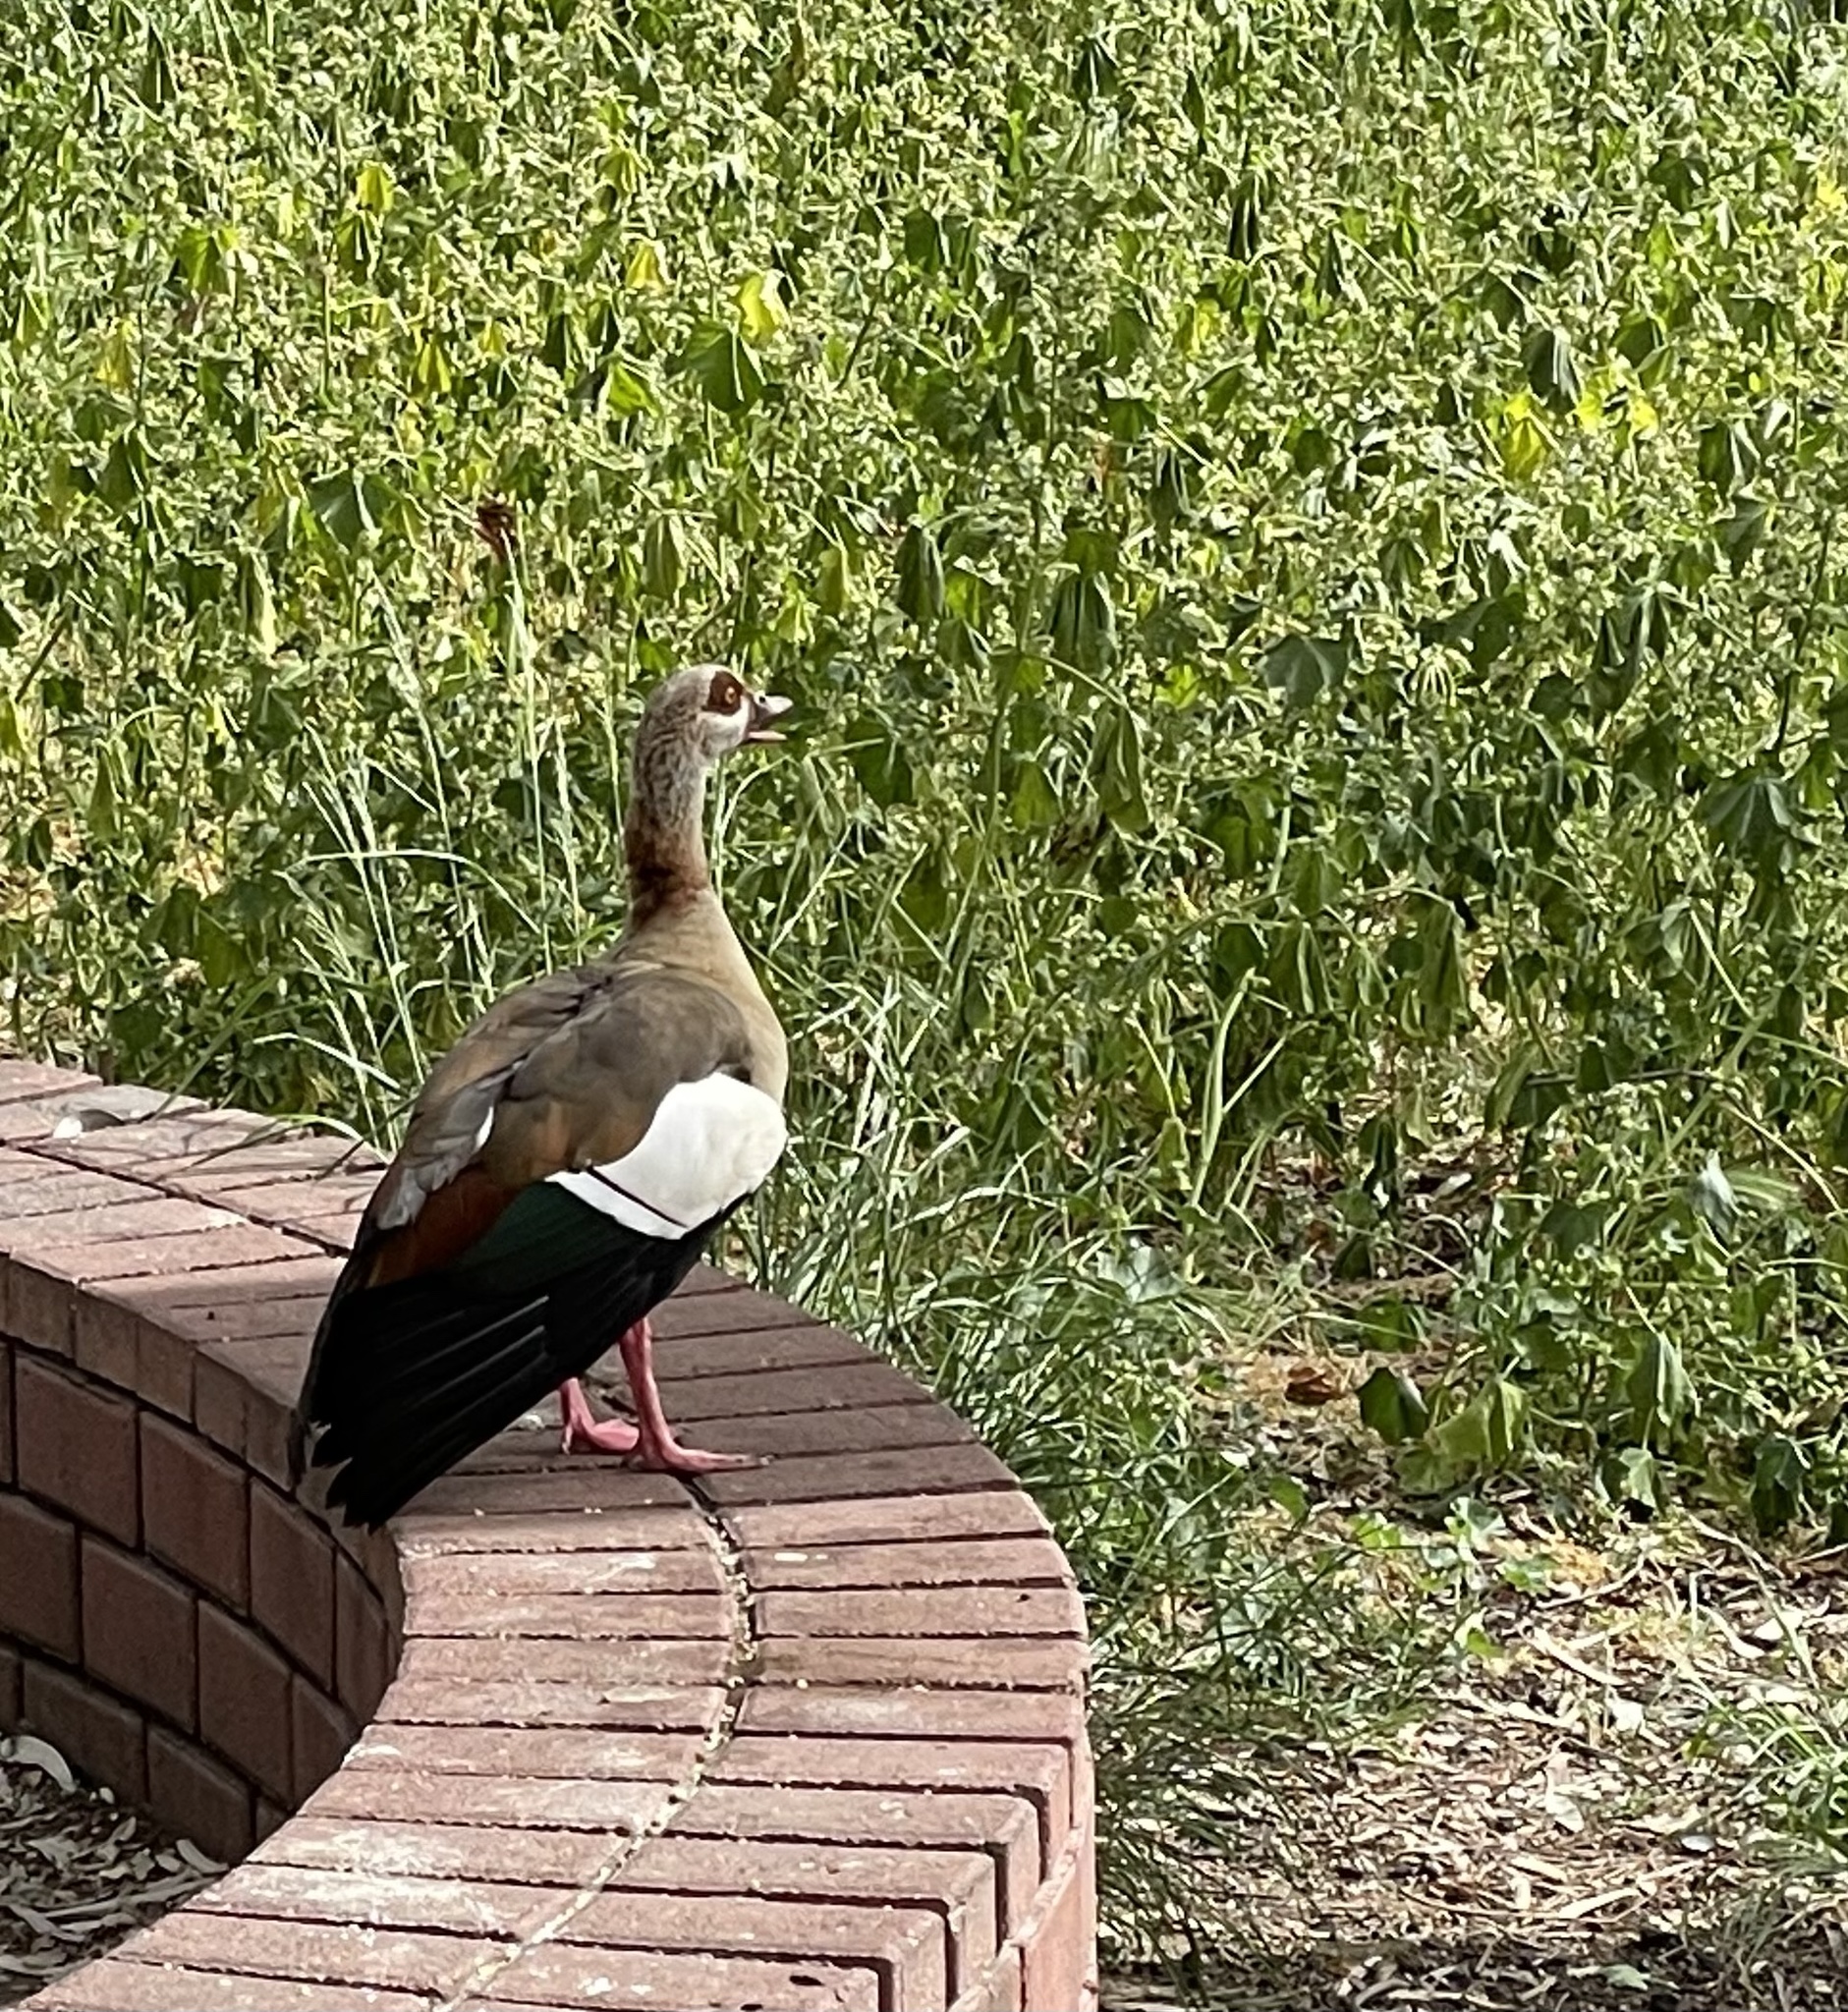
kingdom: Animalia
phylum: Chordata
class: Aves
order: Anseriformes
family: Anatidae
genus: Alopochen
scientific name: Alopochen aegyptiaca
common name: Egyptian goose
